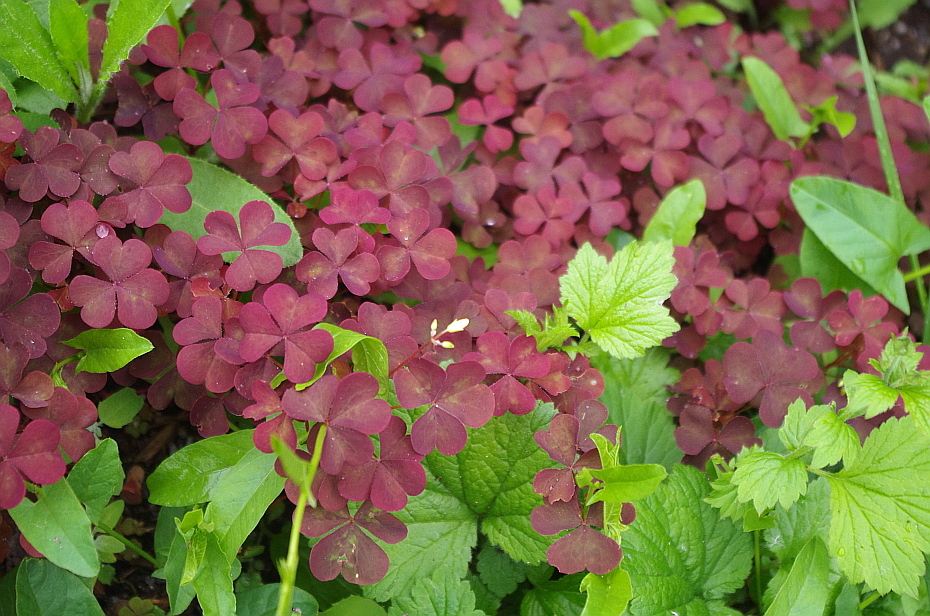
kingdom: Plantae
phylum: Tracheophyta
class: Magnoliopsida
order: Oxalidales
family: Oxalidaceae
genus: Oxalis
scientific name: Oxalis stricta
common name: Upright yellow-sorrel
